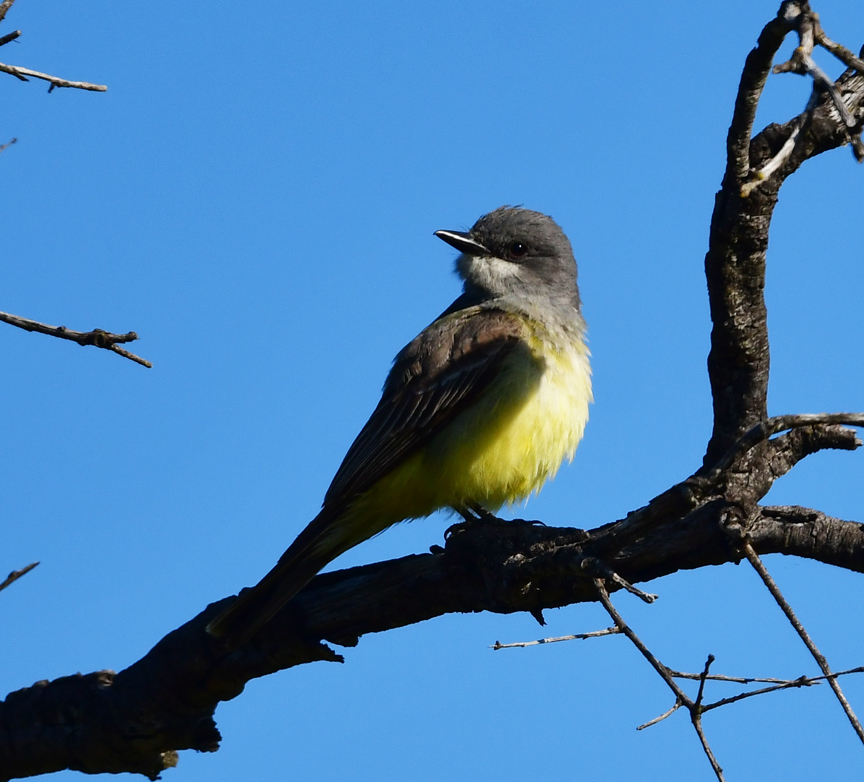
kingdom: Animalia
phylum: Chordata
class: Aves
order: Passeriformes
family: Tyrannidae
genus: Tyrannus
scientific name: Tyrannus vociferans
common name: Cassin's kingbird
